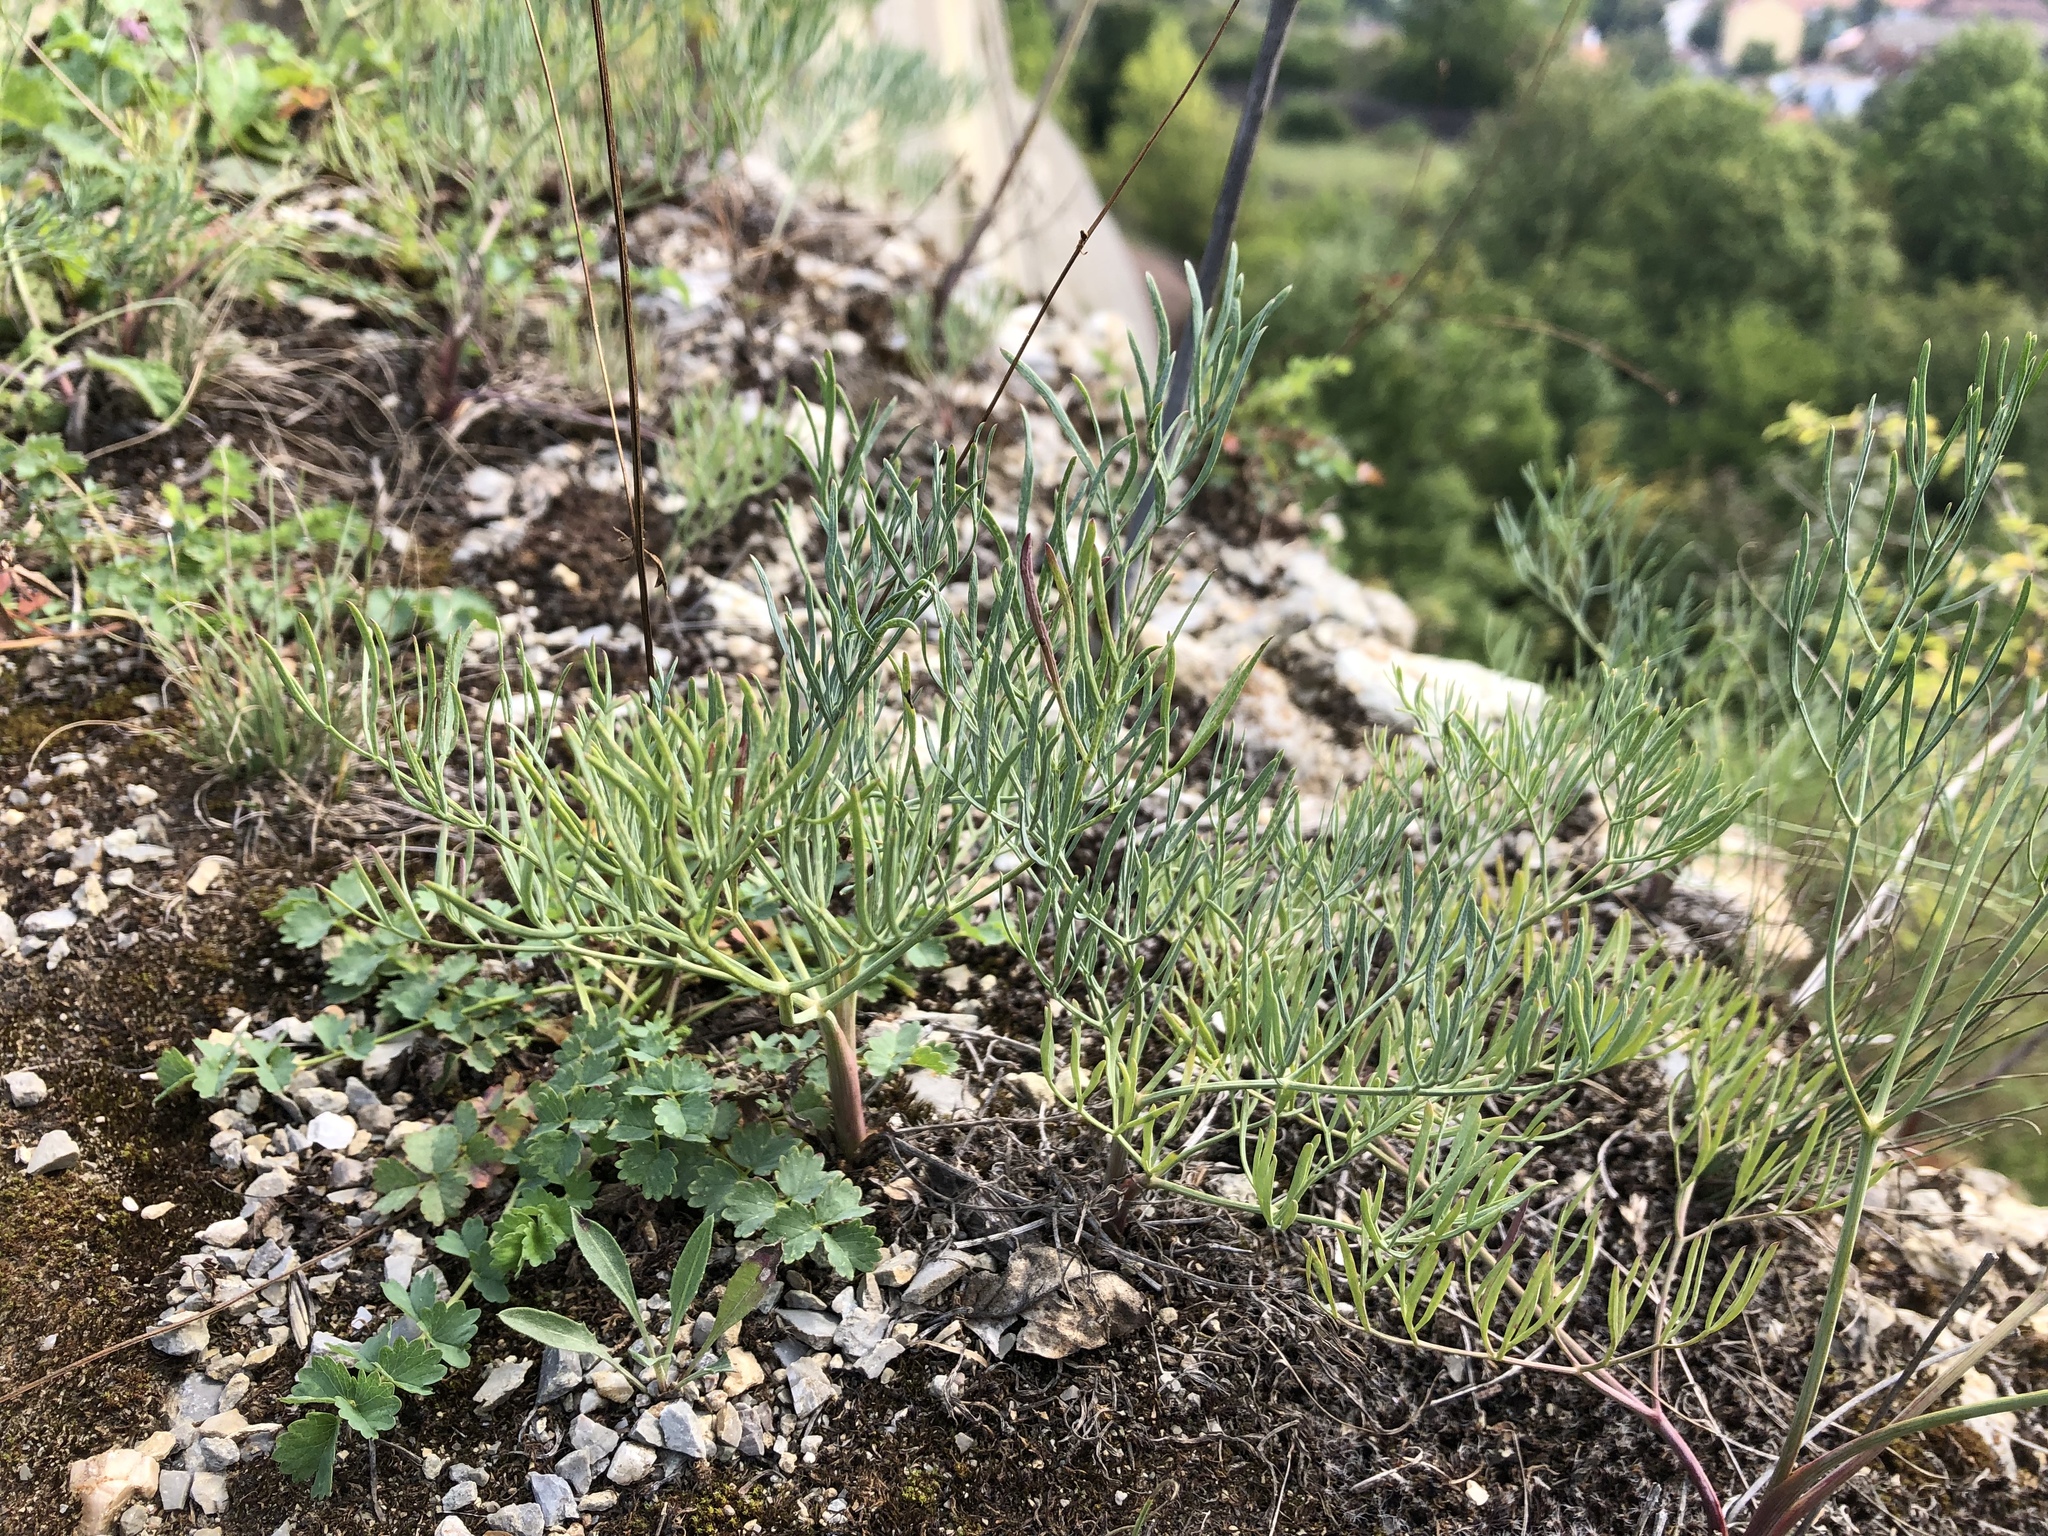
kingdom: Plantae
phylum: Tracheophyta
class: Magnoliopsida
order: Apiales
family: Apiaceae
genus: Seseli
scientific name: Seseli osseum
